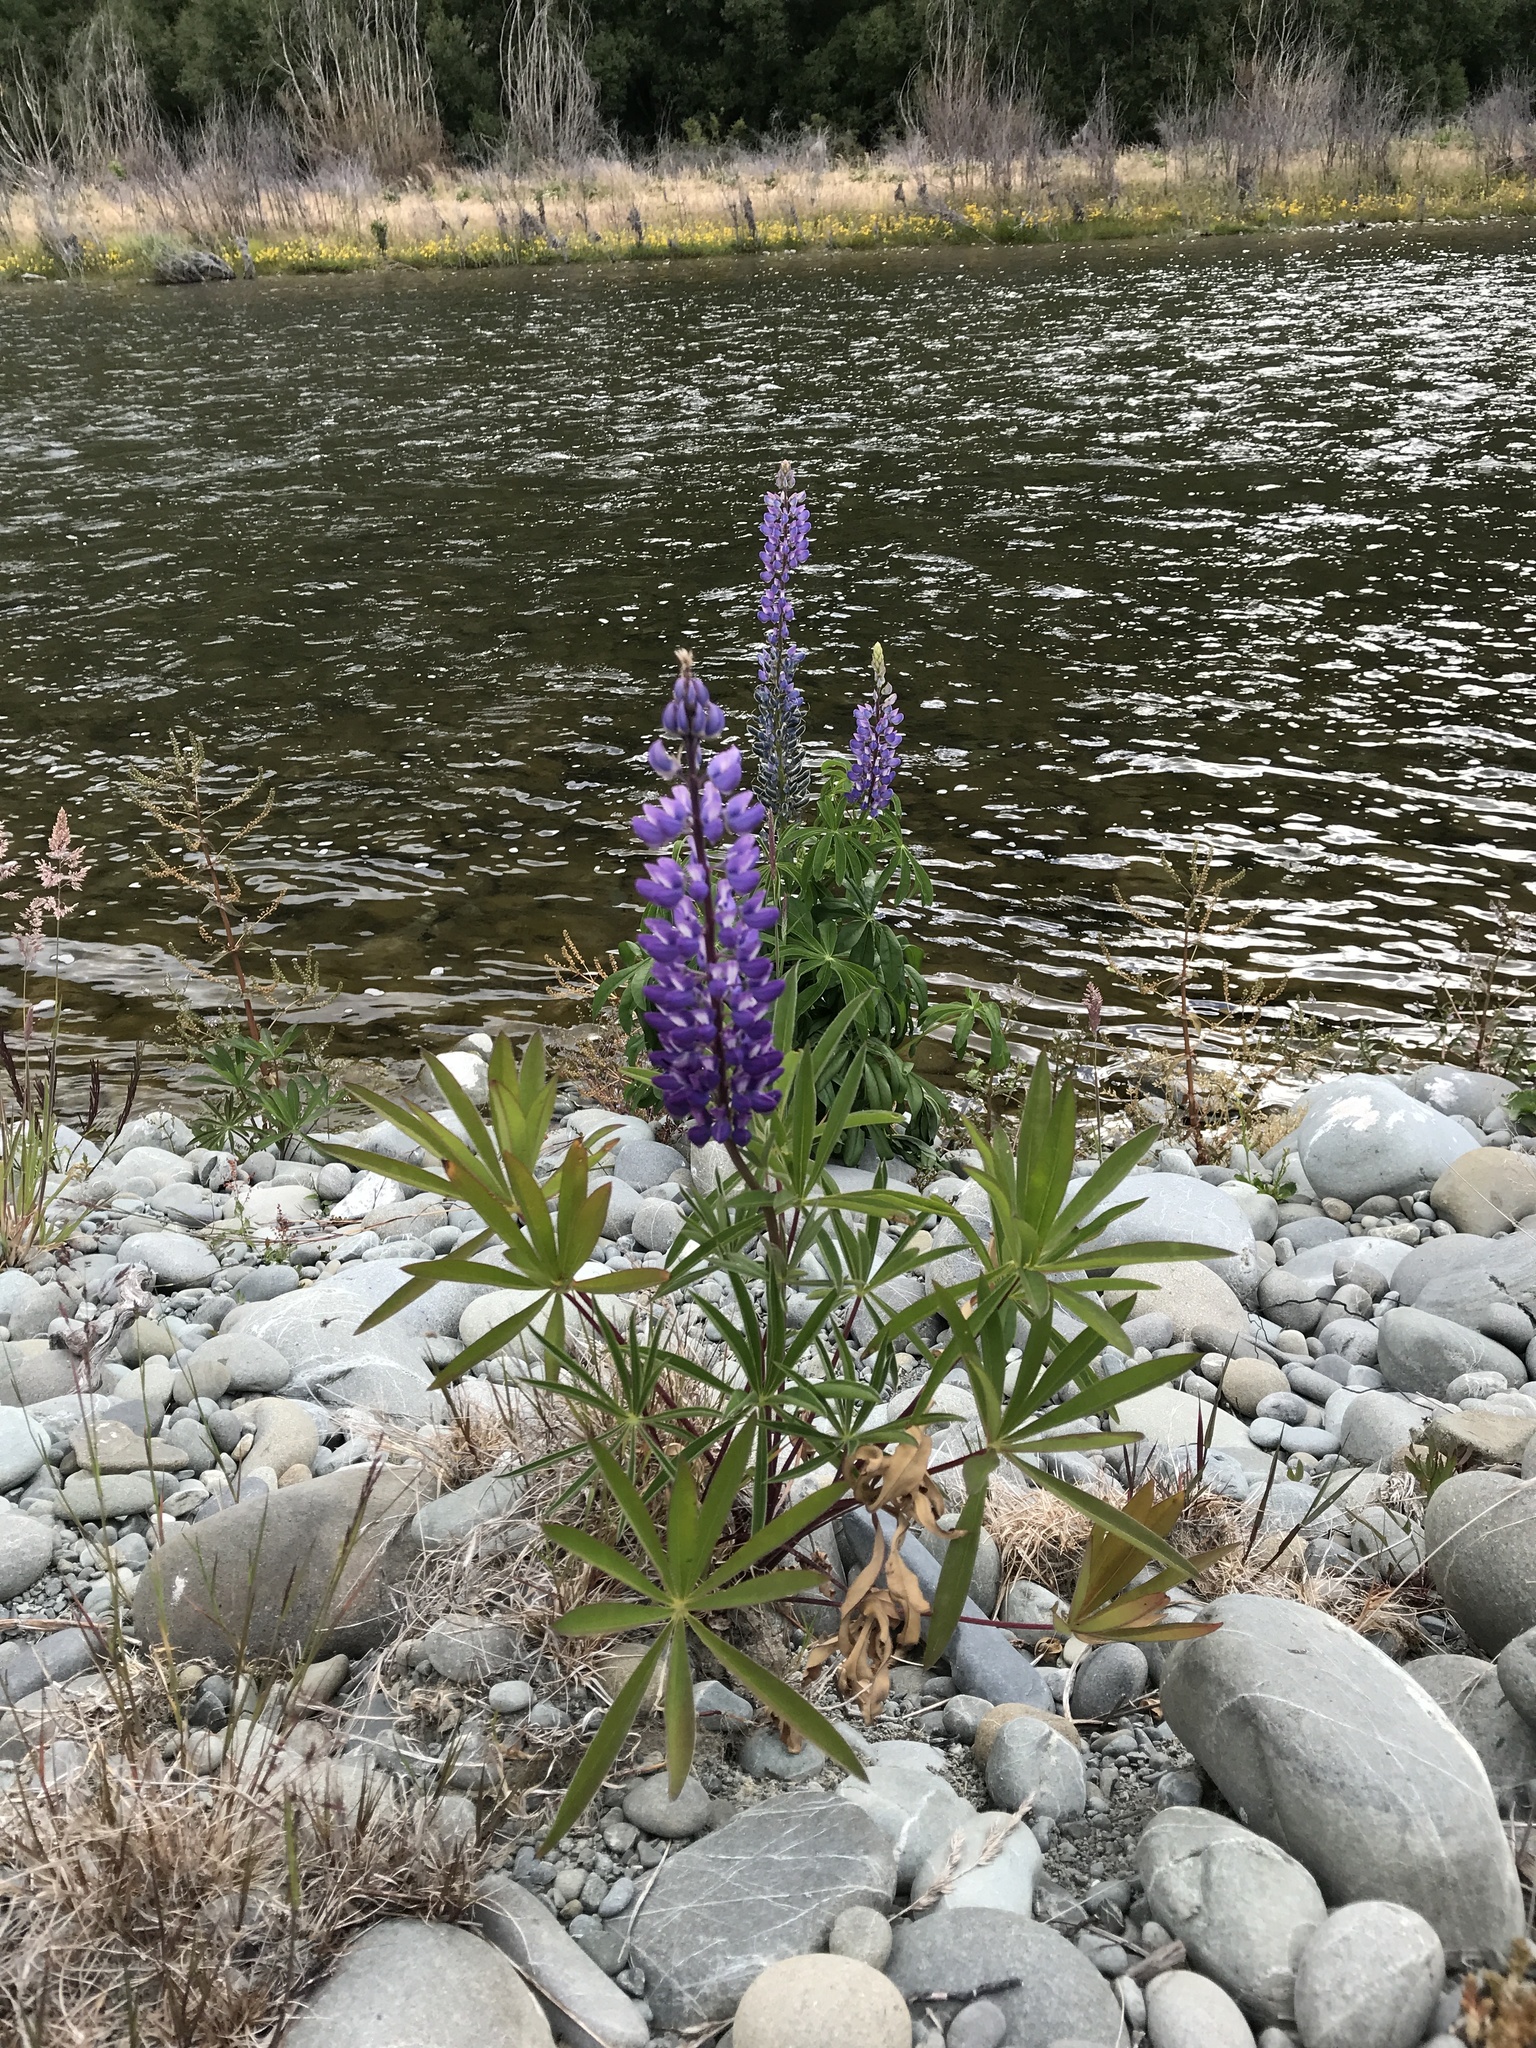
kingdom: Plantae
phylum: Tracheophyta
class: Magnoliopsida
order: Fabales
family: Fabaceae
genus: Lupinus
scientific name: Lupinus polyphyllus
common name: Garden lupin
